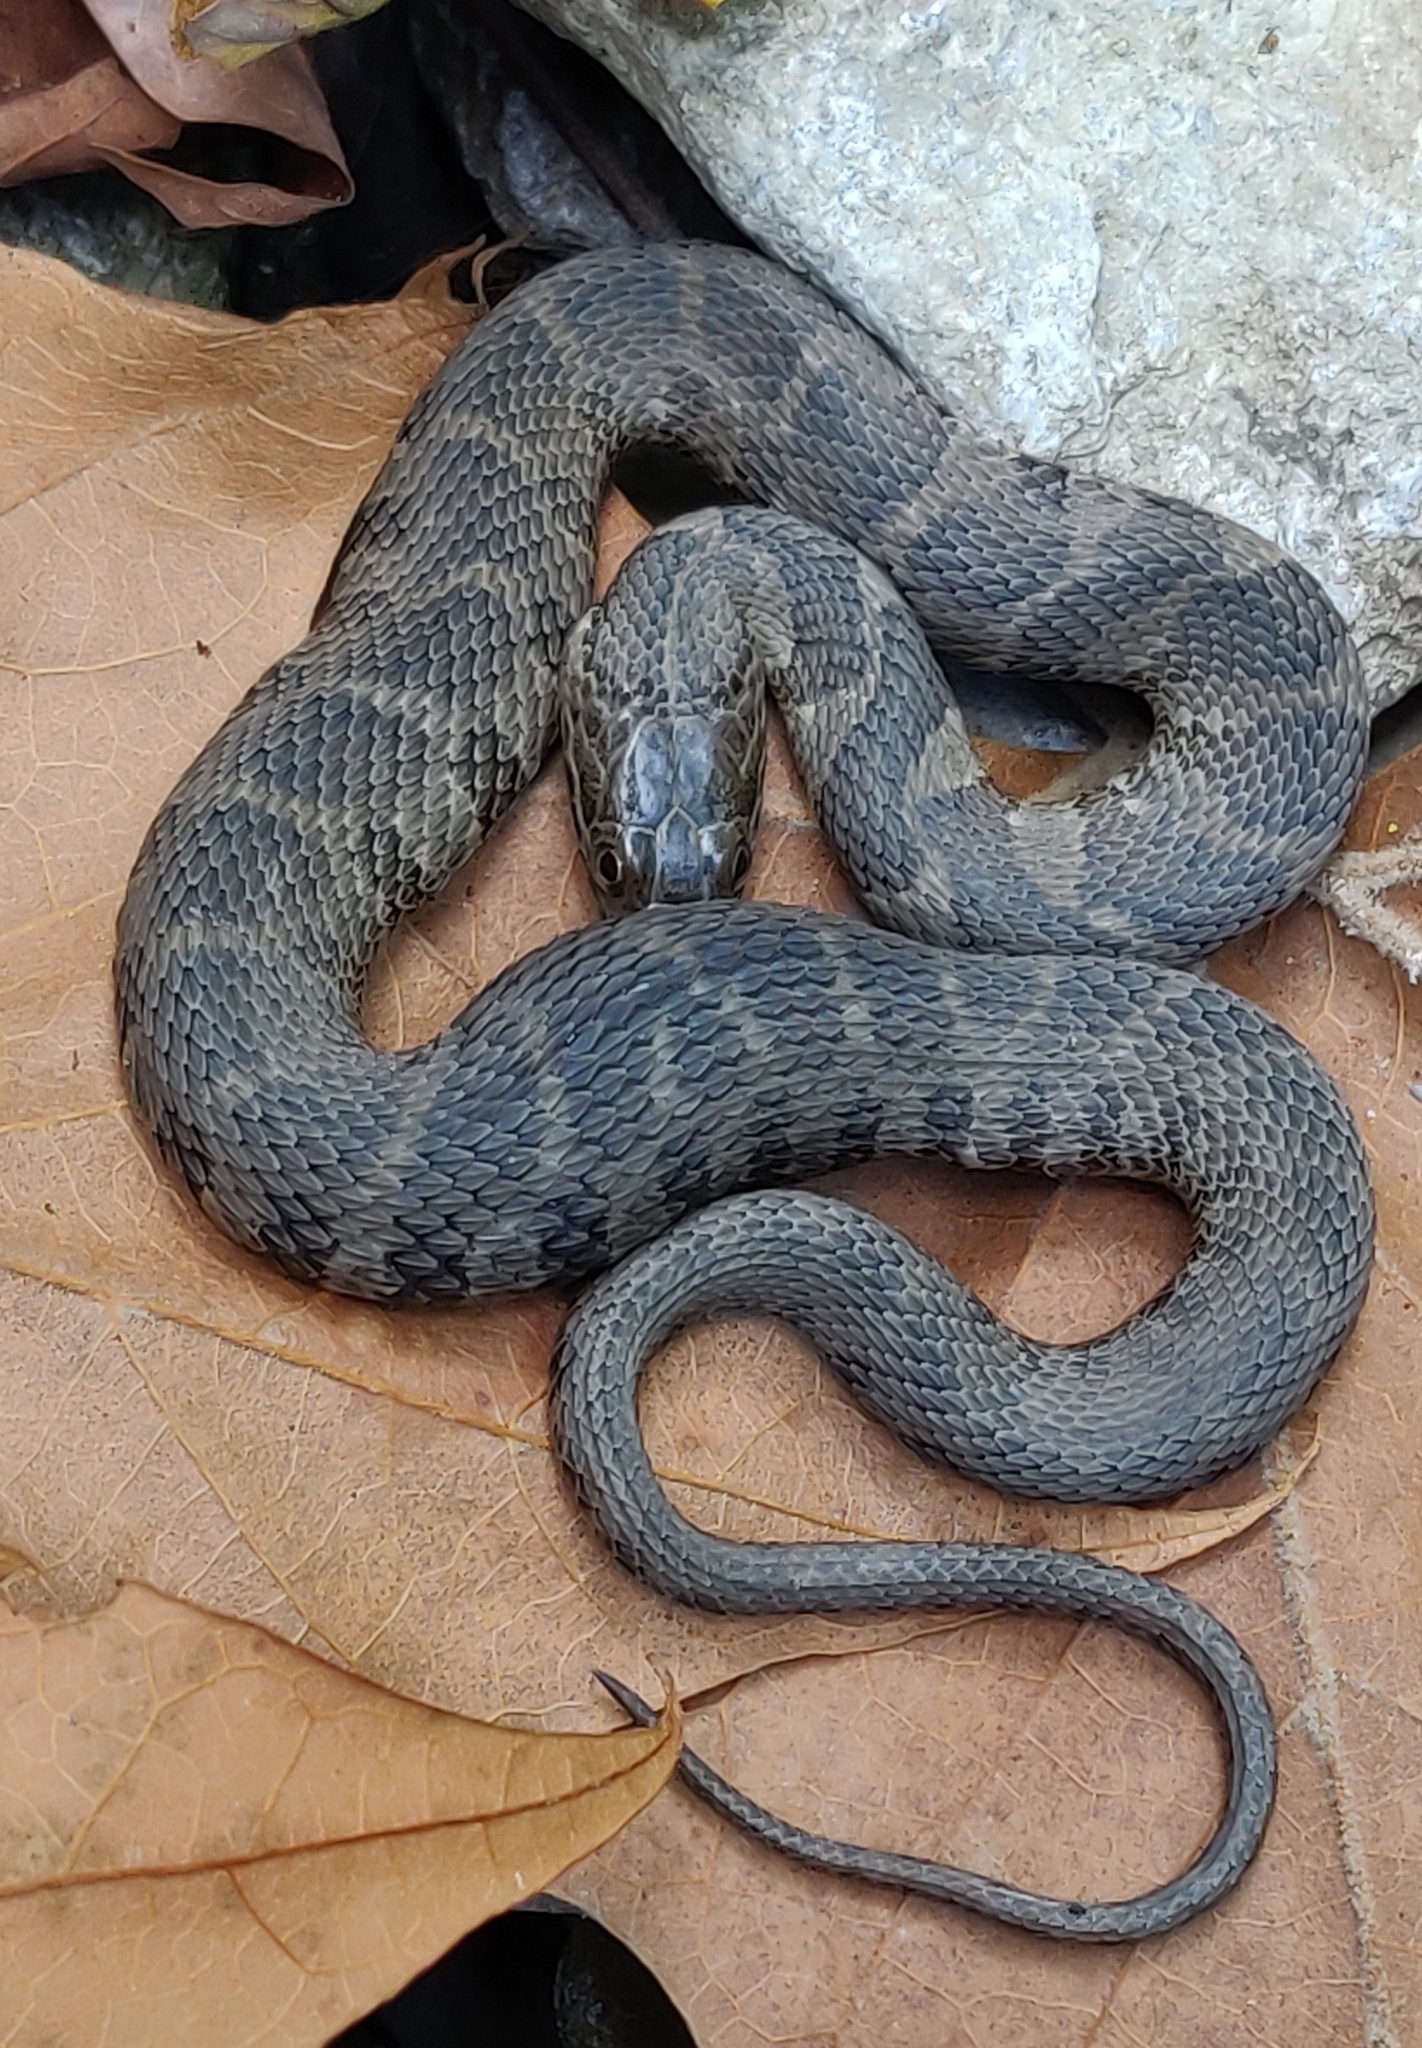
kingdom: Animalia
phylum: Chordata
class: Squamata
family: Colubridae
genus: Nerodia
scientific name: Nerodia sipedon
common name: Northern water snake
